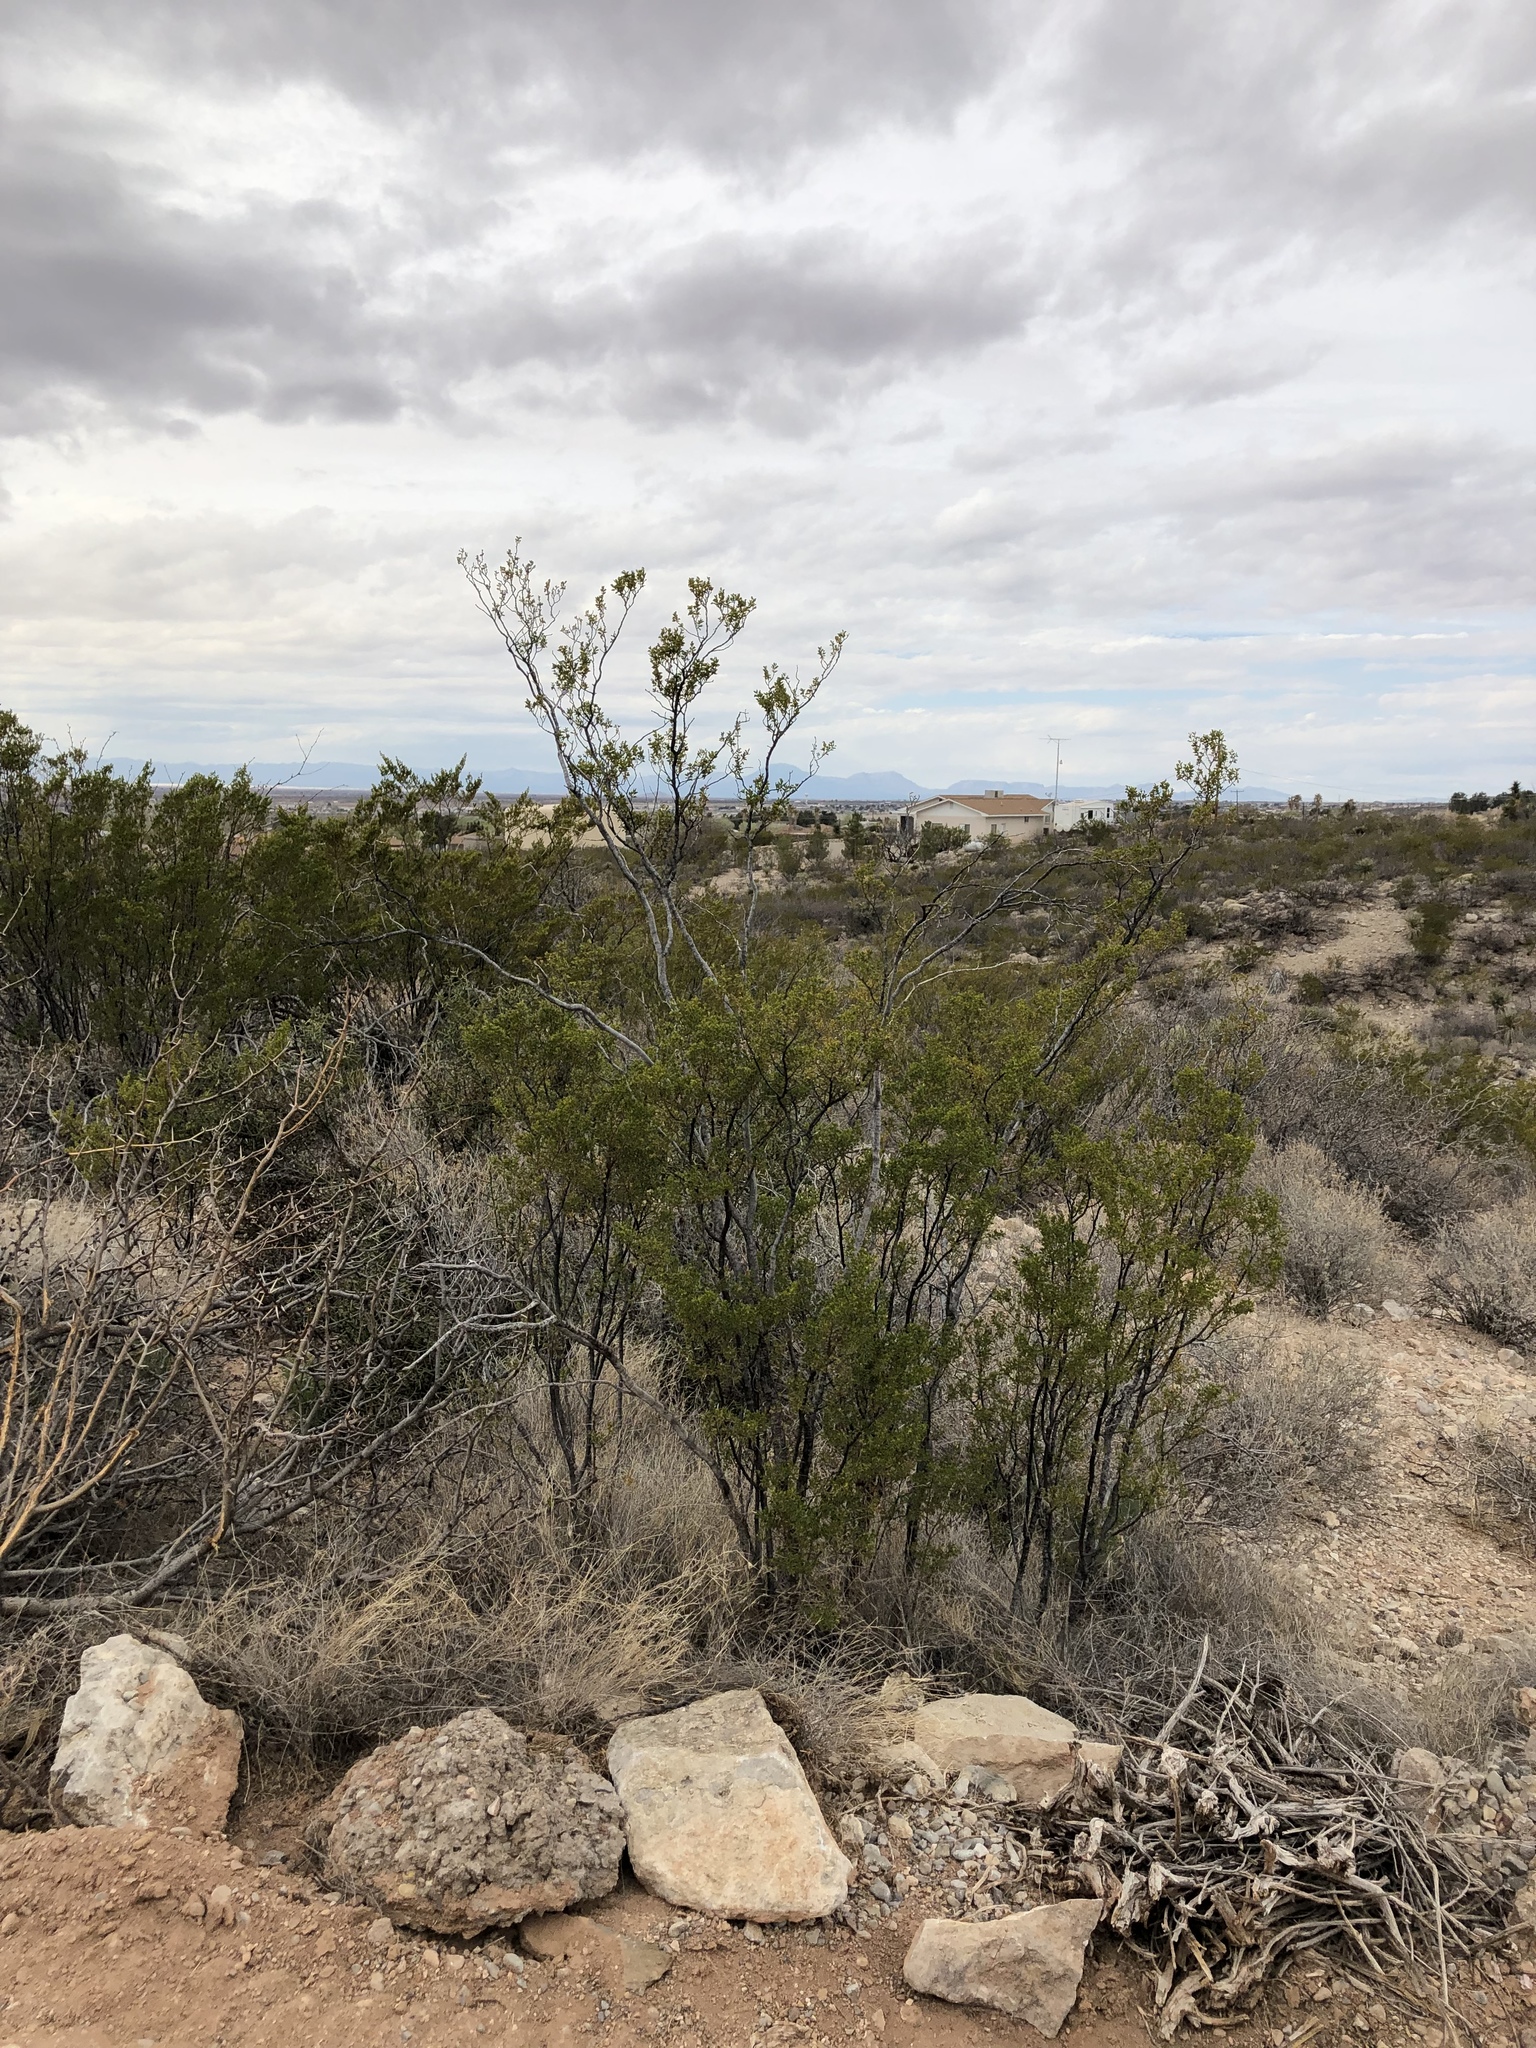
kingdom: Plantae
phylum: Tracheophyta
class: Magnoliopsida
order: Zygophyllales
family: Zygophyllaceae
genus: Larrea
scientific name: Larrea tridentata
